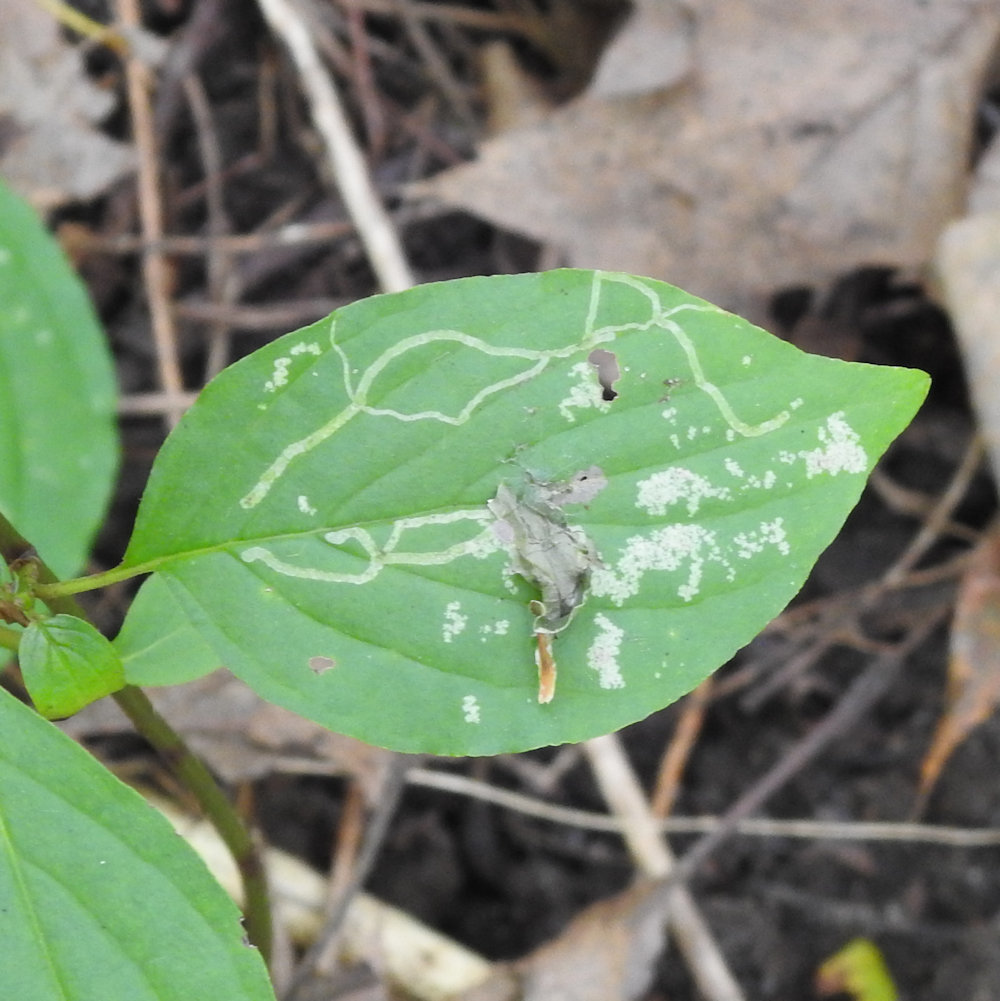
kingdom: Animalia
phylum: Arthropoda
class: Insecta
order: Diptera
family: Agromyzidae
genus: Phytomyza
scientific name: Phytomyza agromyzina
